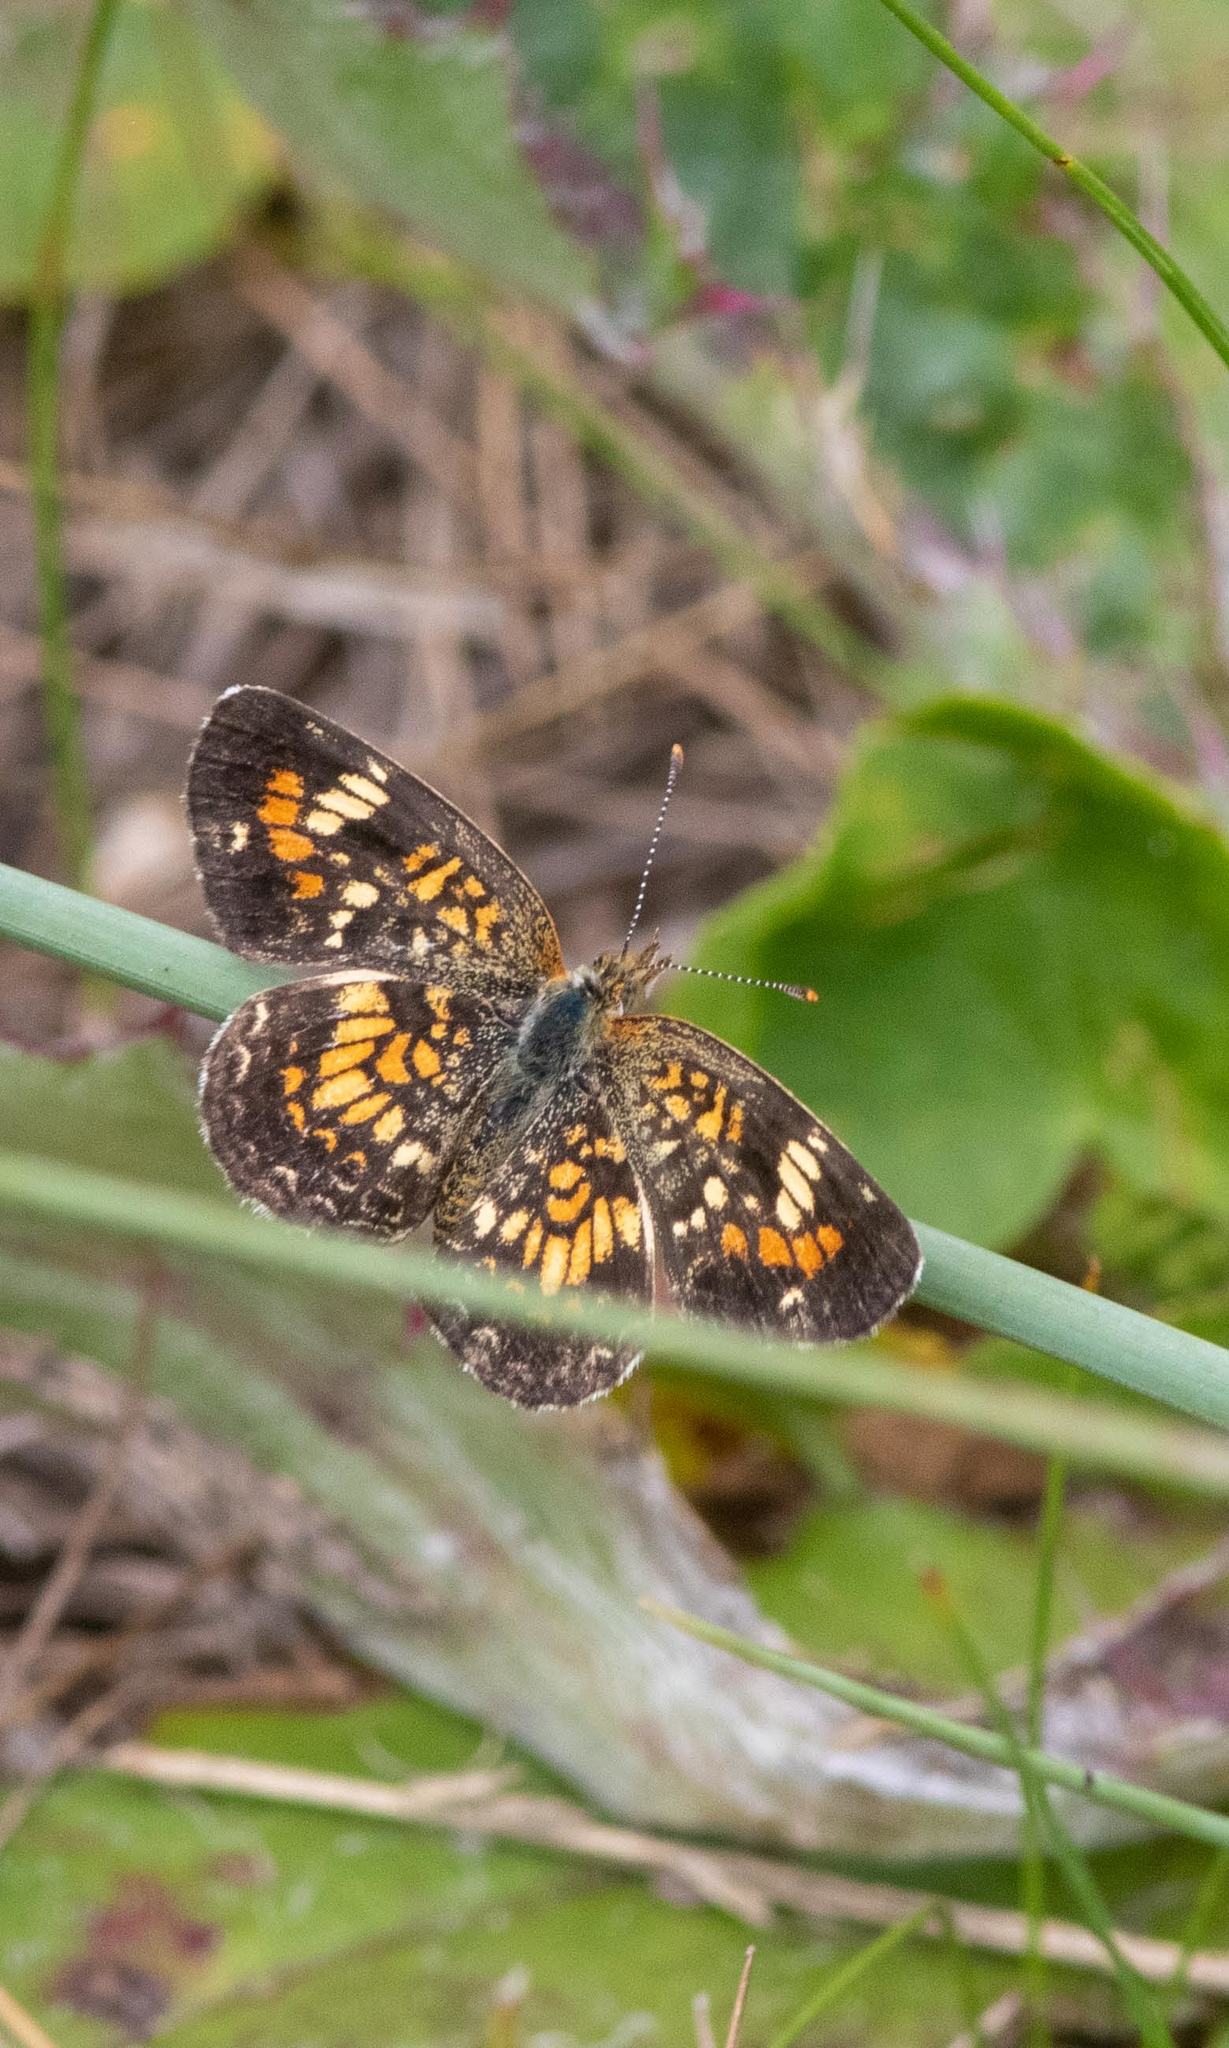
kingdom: Animalia
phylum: Arthropoda
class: Insecta
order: Lepidoptera
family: Nymphalidae
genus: Phyciodes
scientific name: Phyciodes phaon
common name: Phaon crescent
